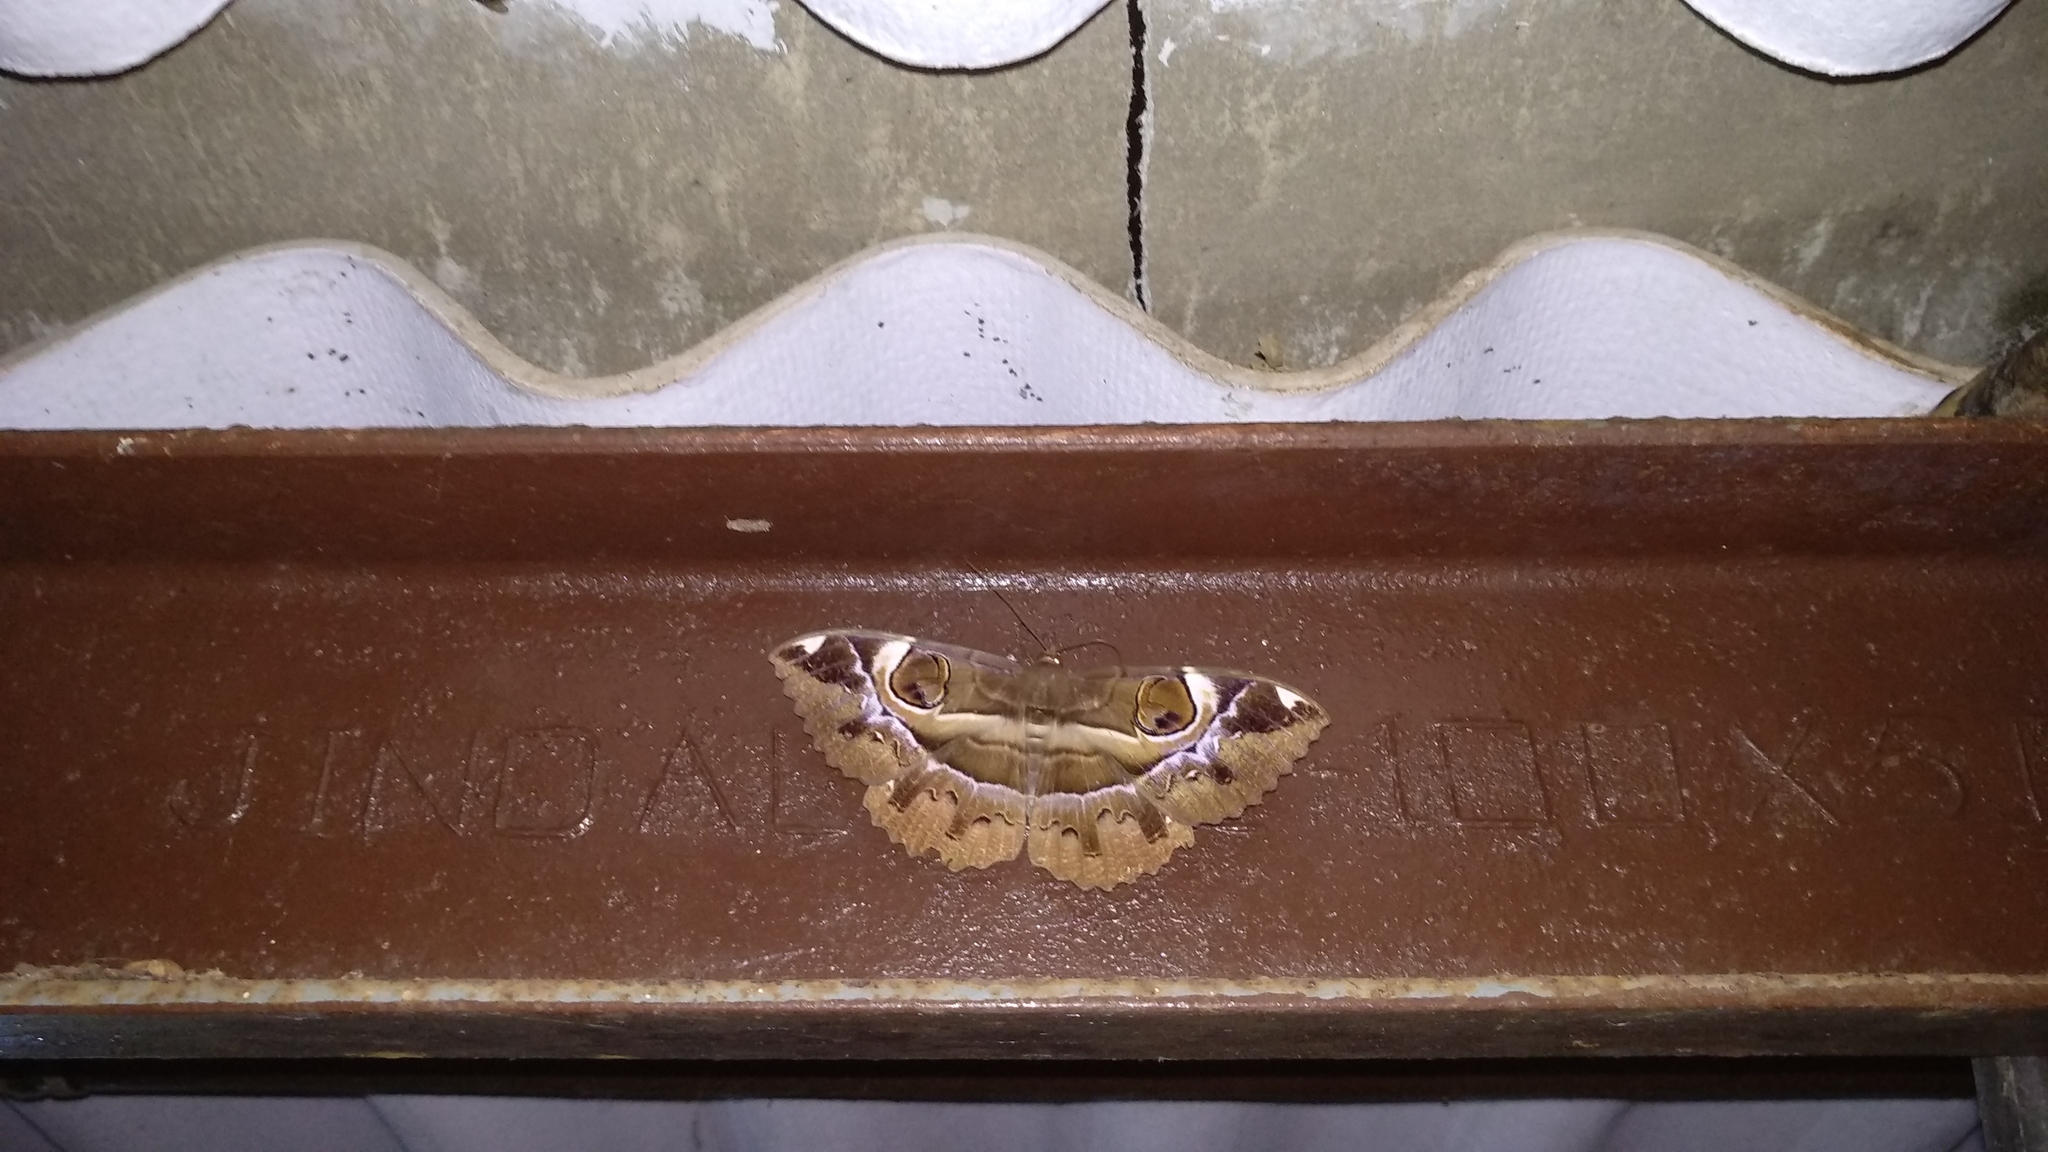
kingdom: Animalia
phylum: Arthropoda
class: Insecta
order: Lepidoptera
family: Erebidae
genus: Erebus
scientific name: Erebus ephesperis
